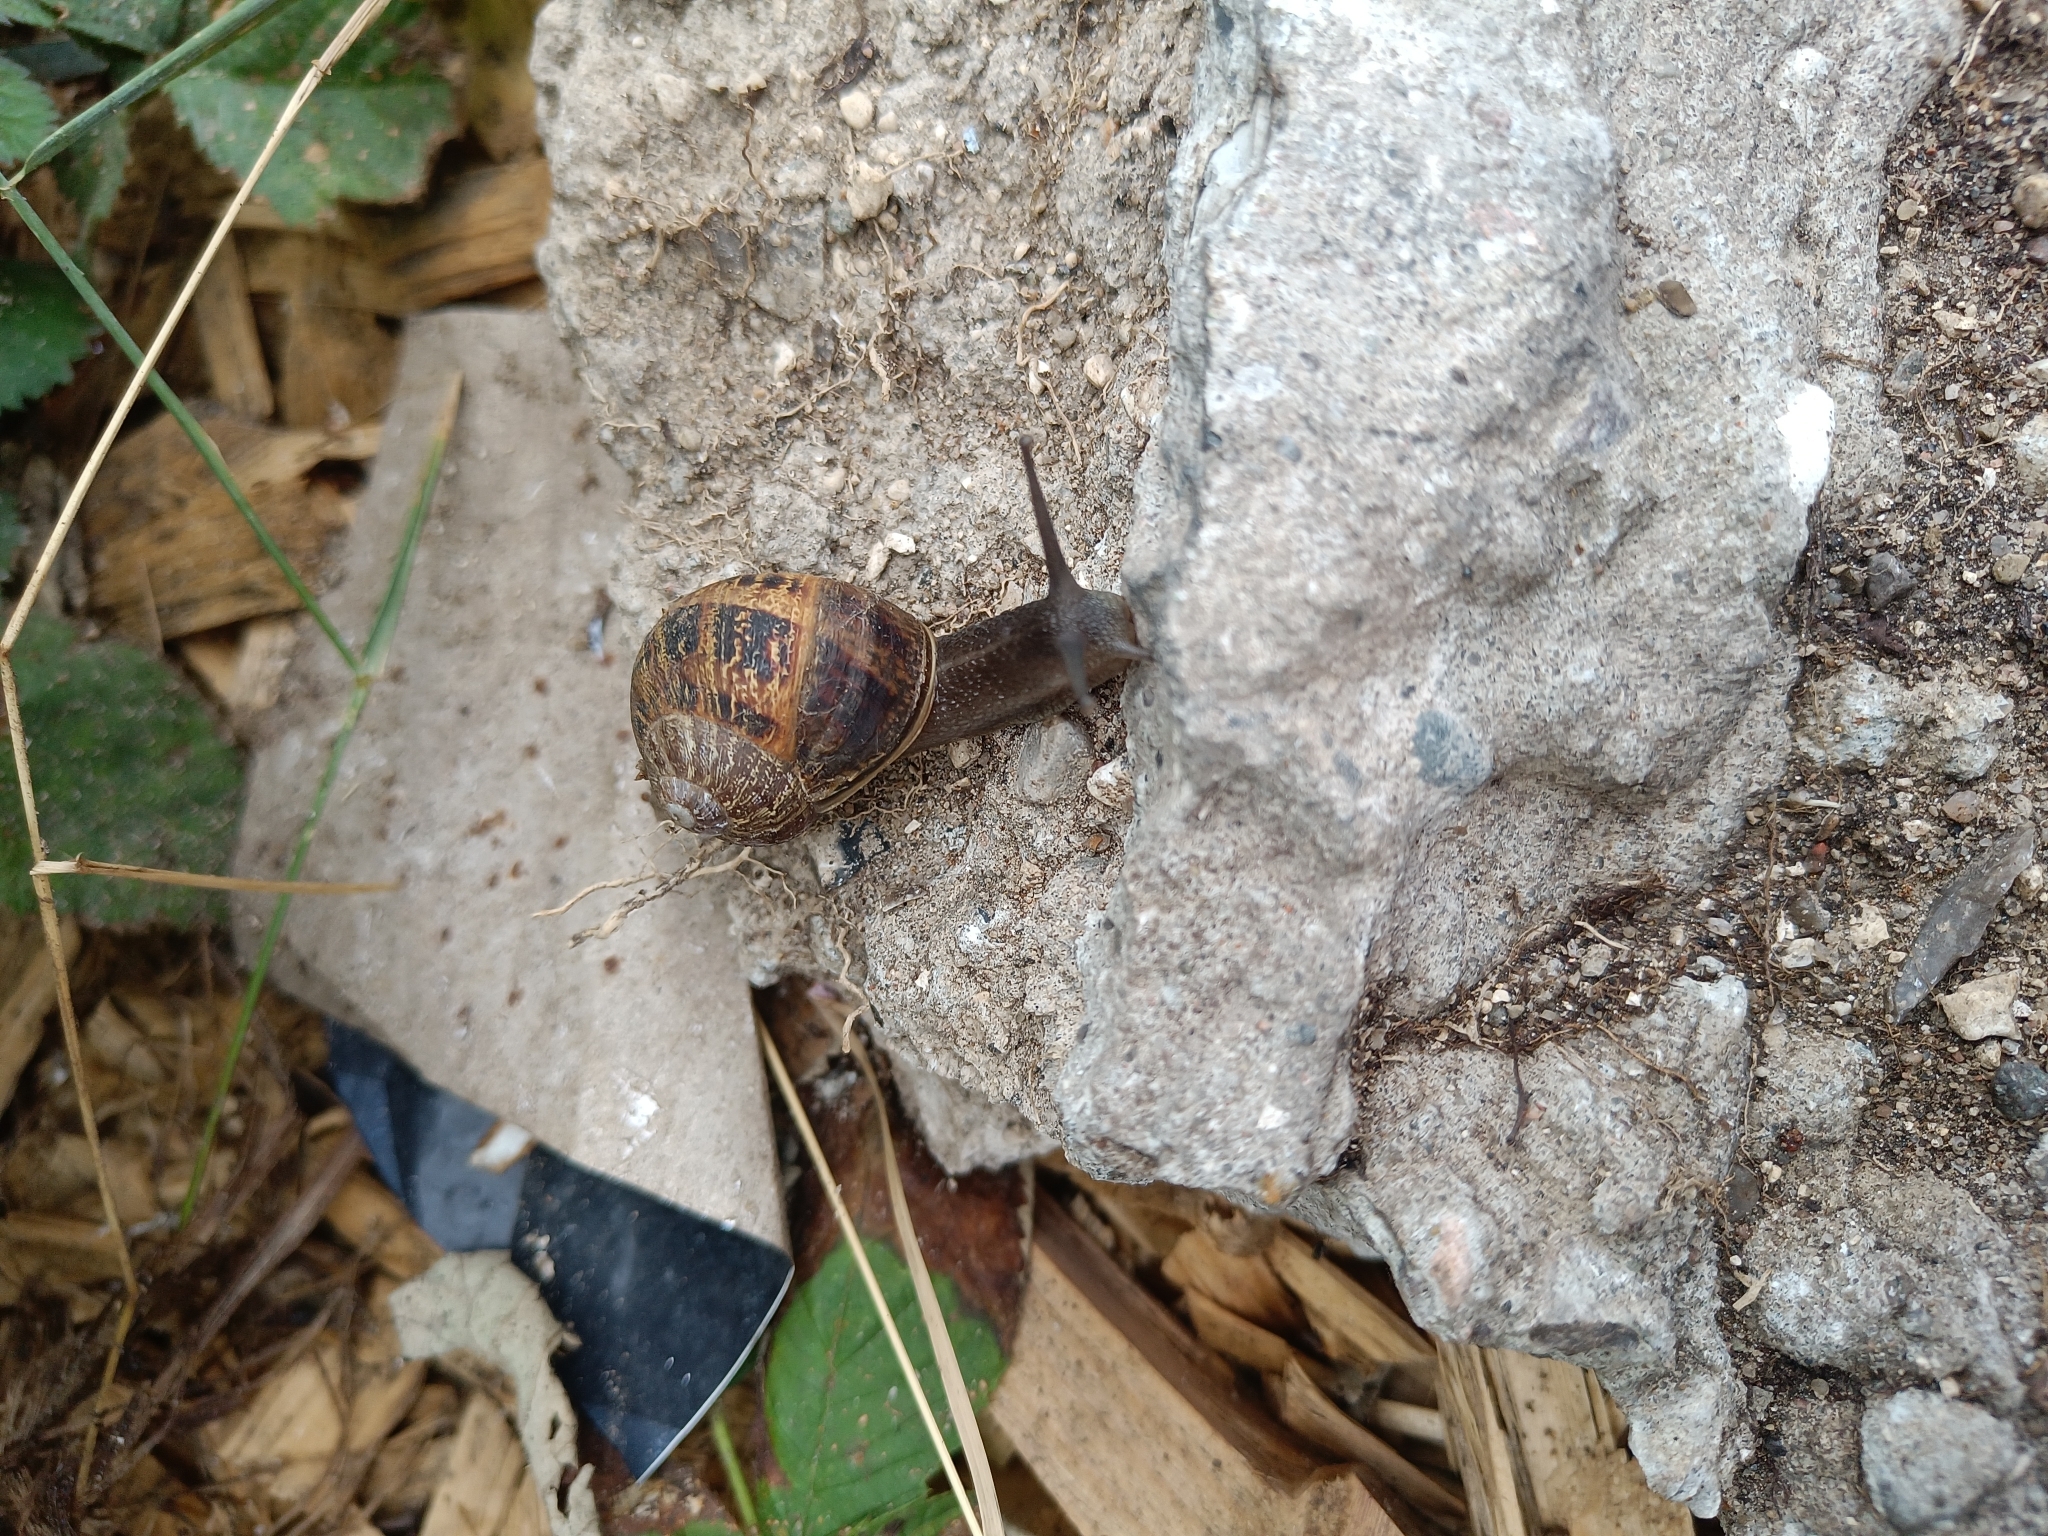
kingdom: Animalia
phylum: Mollusca
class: Gastropoda
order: Stylommatophora
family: Helicidae
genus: Cornu
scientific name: Cornu aspersum
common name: Brown garden snail
